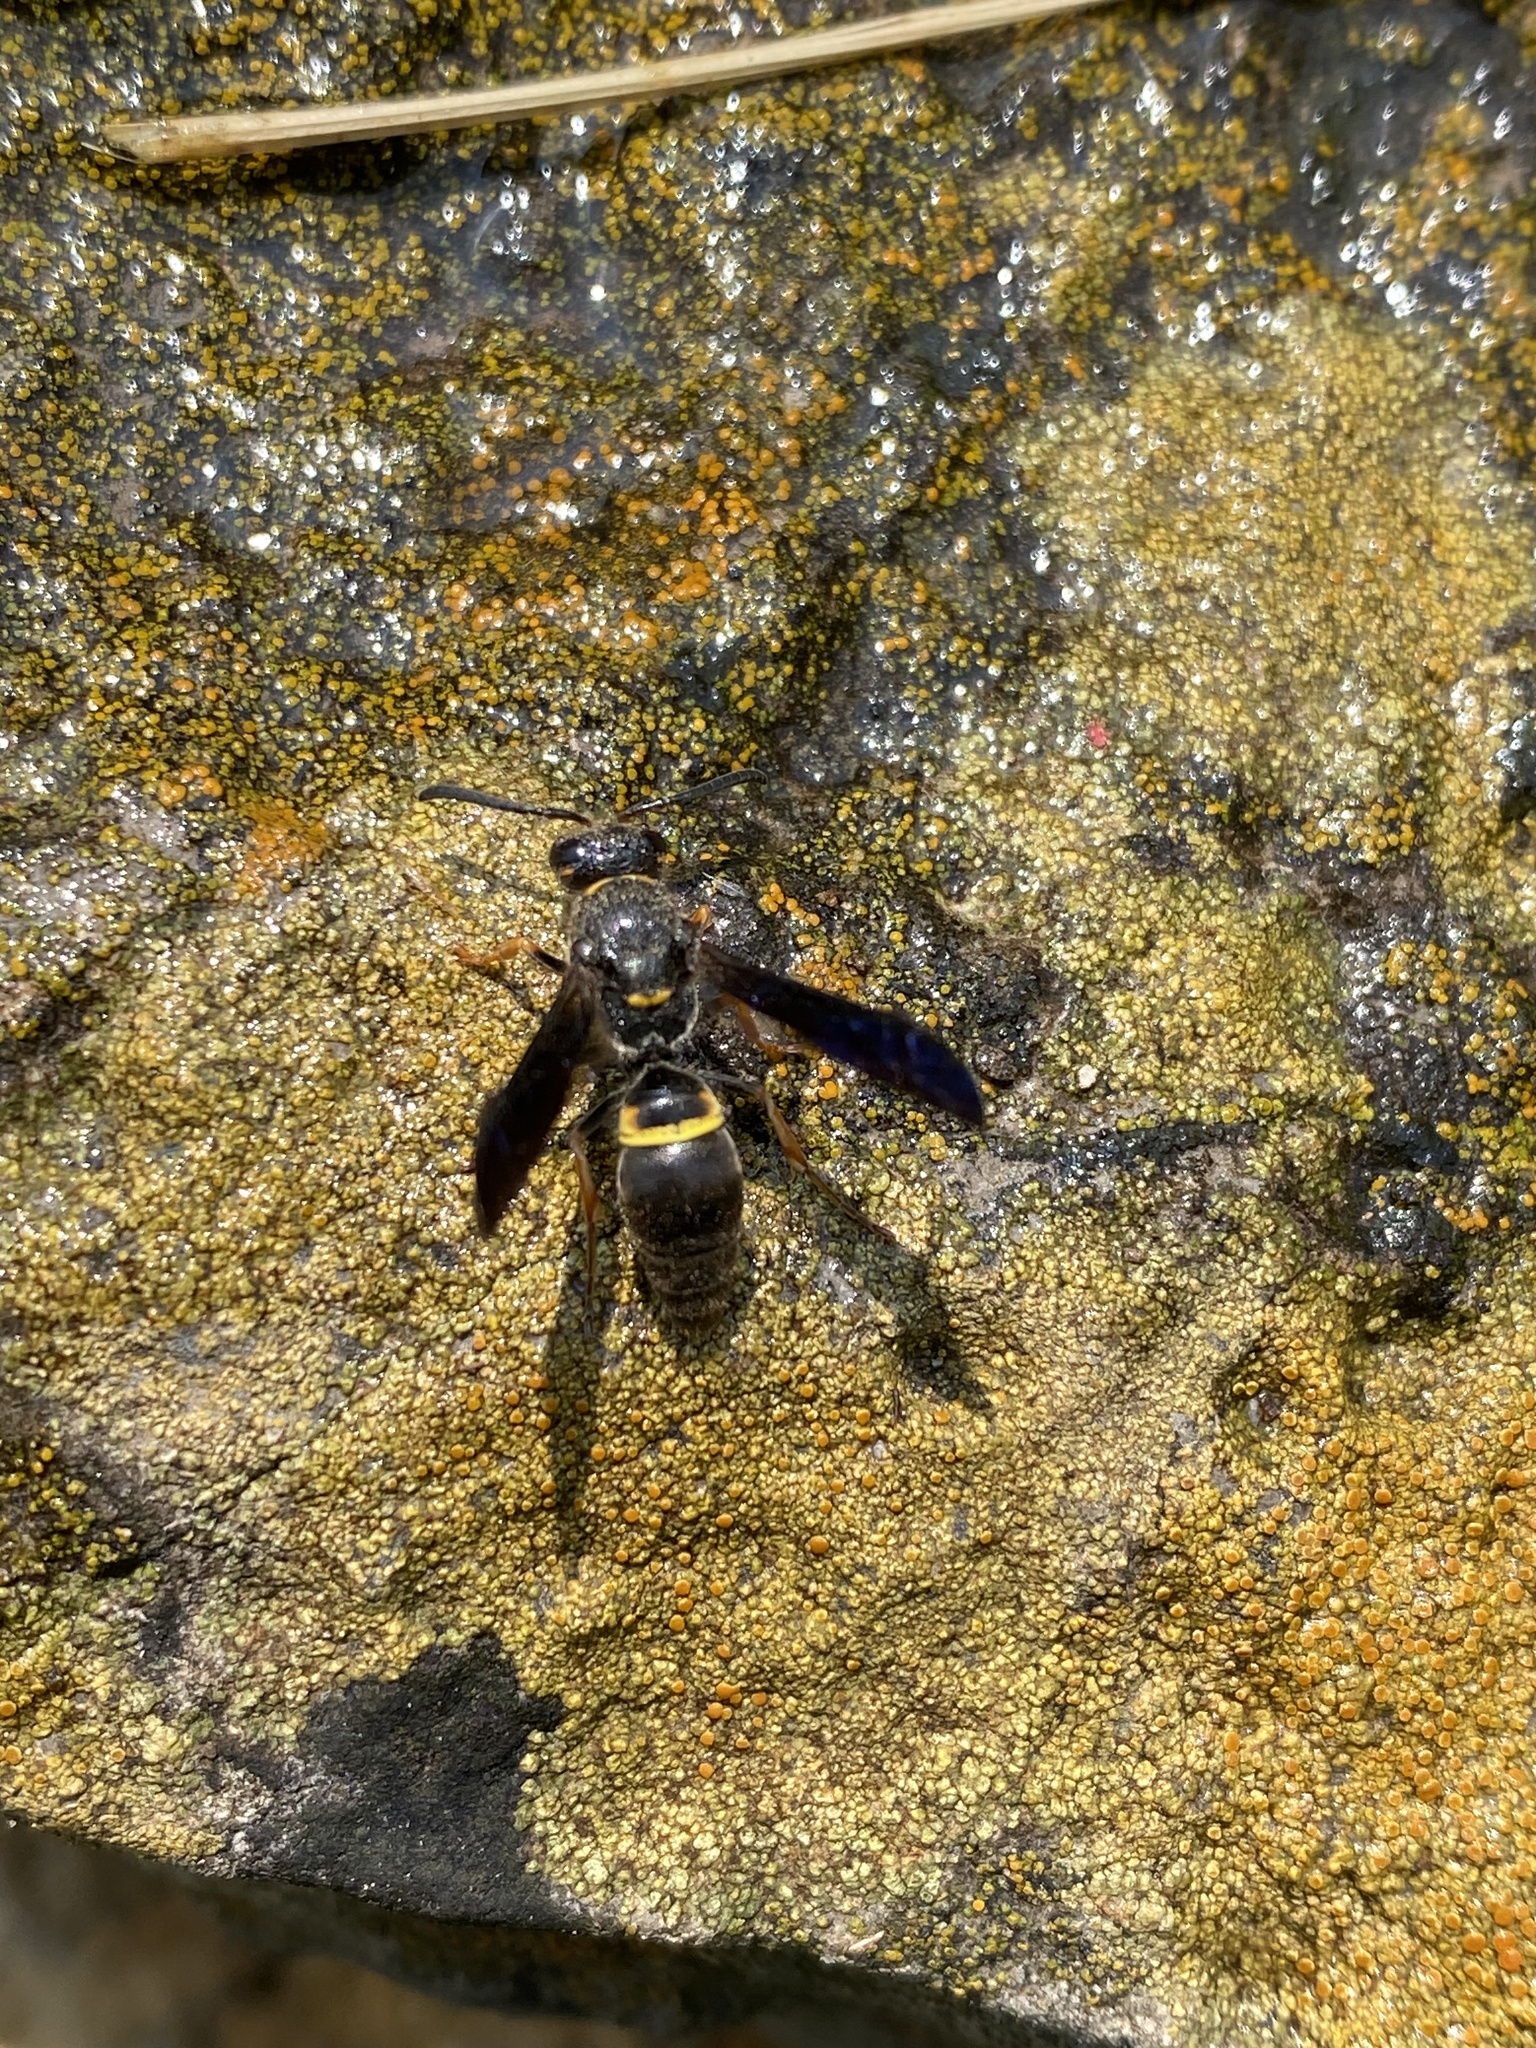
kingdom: Animalia
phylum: Arthropoda
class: Insecta
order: Hymenoptera
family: Vespidae
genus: Ancistrocerus
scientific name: Ancistrocerus unifasciatus
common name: One-banded mason wasp
